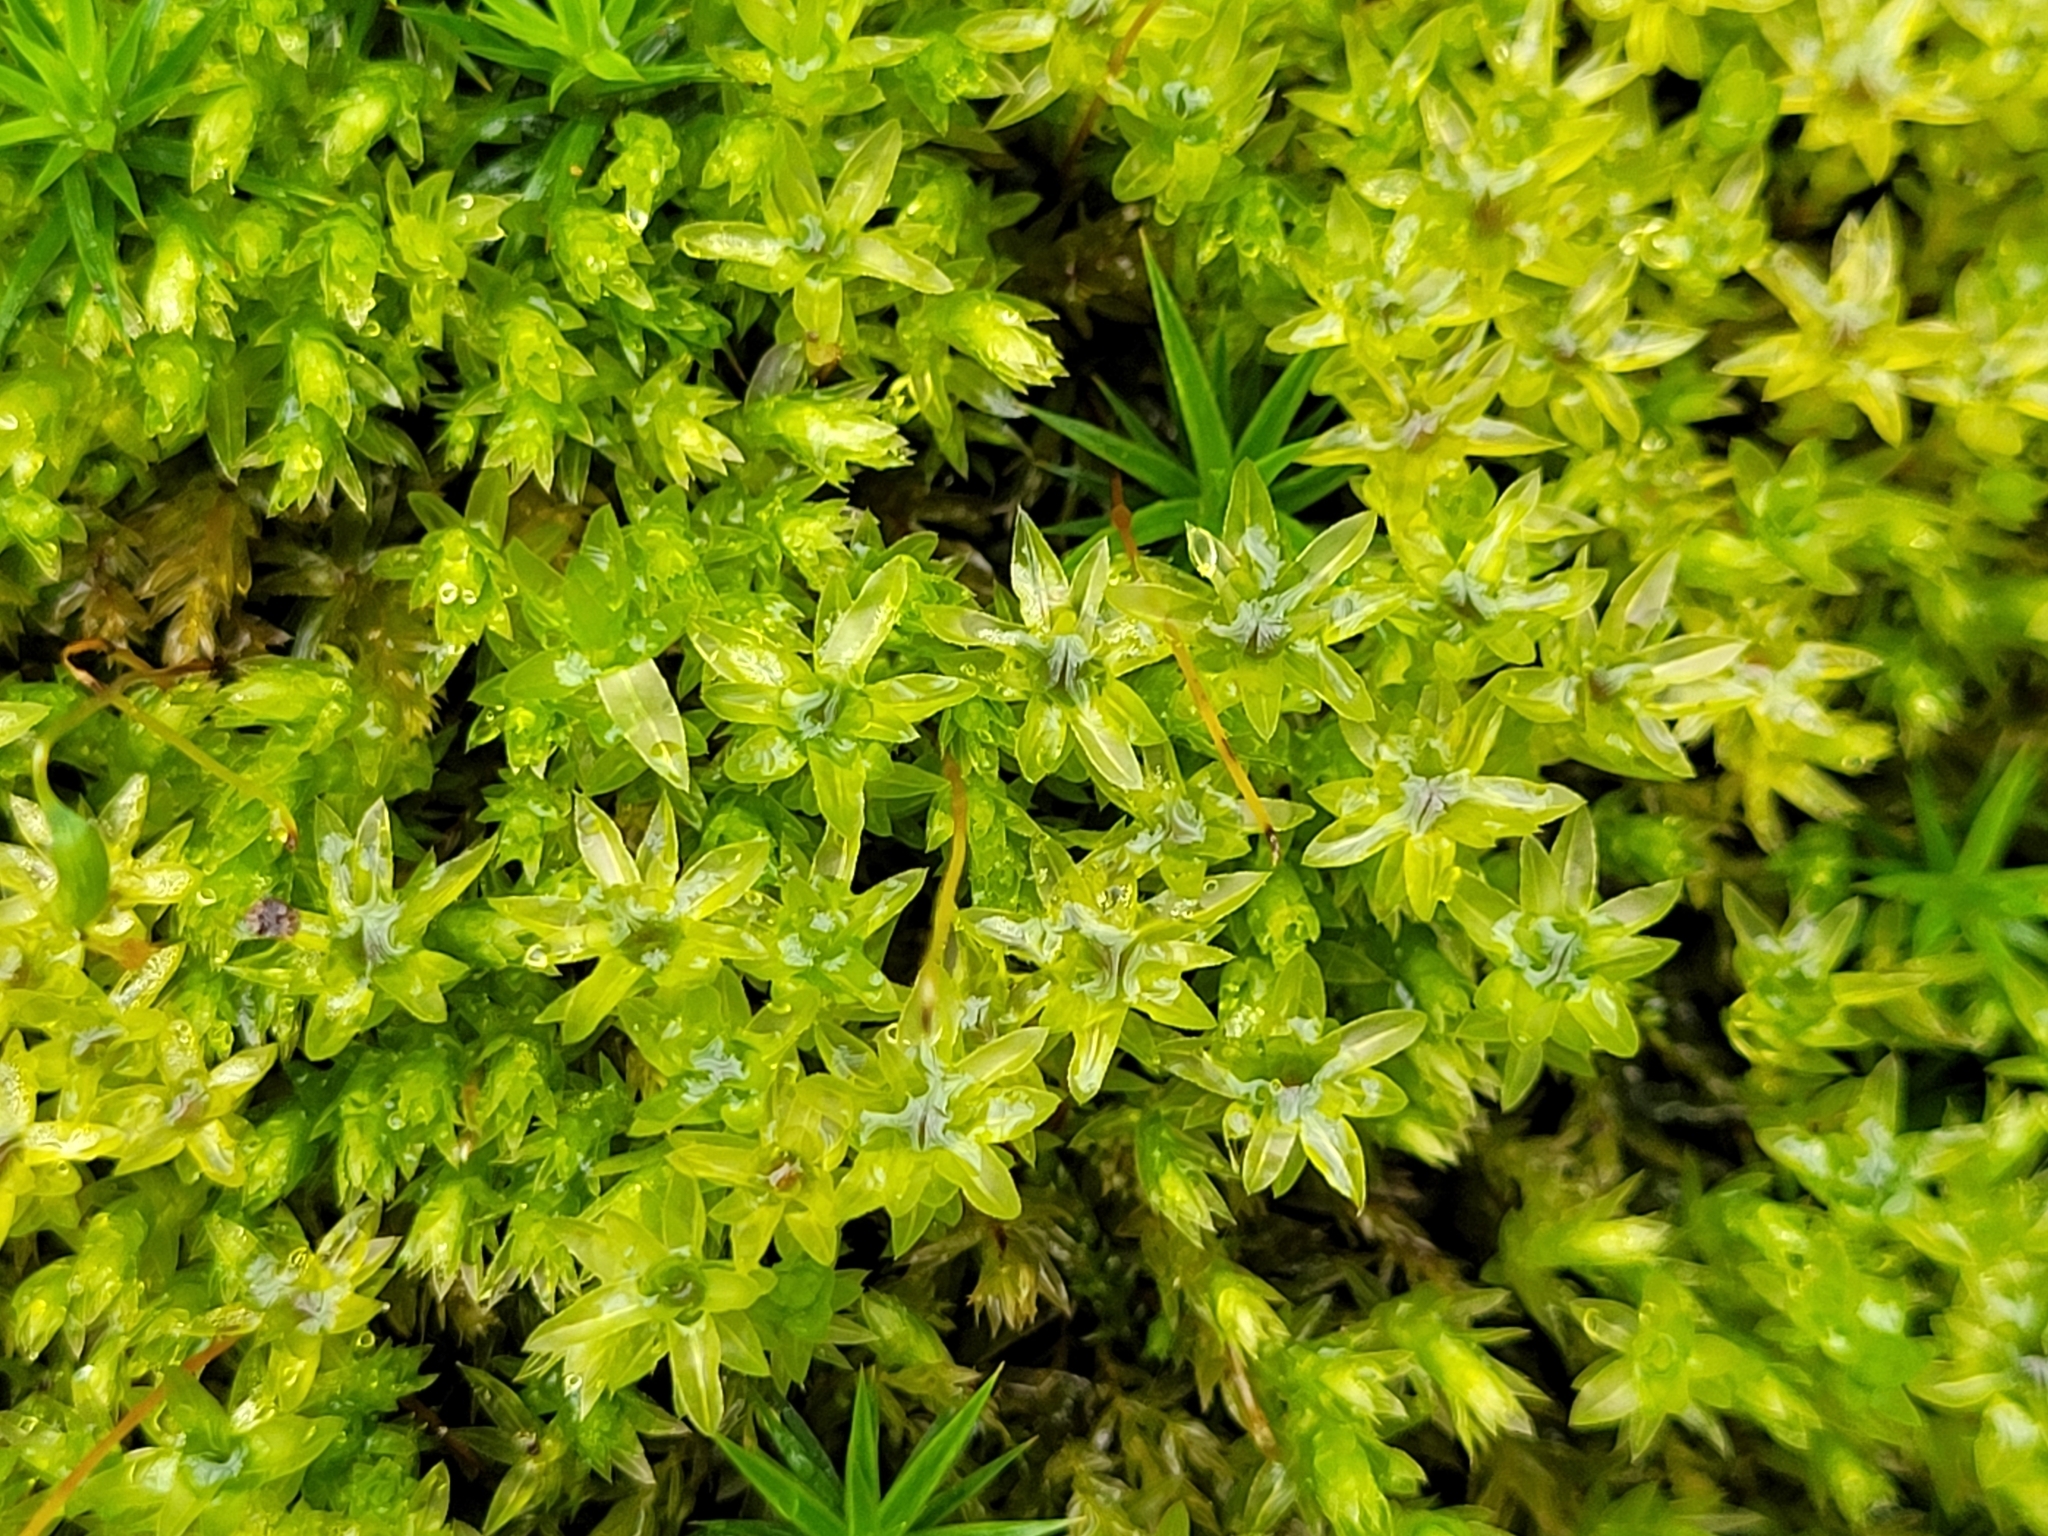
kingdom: Plantae
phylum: Bryophyta
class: Bryopsida
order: Bryales
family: Mniaceae
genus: Mnium
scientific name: Mnium hornum
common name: Swan's-neck leafy moss
